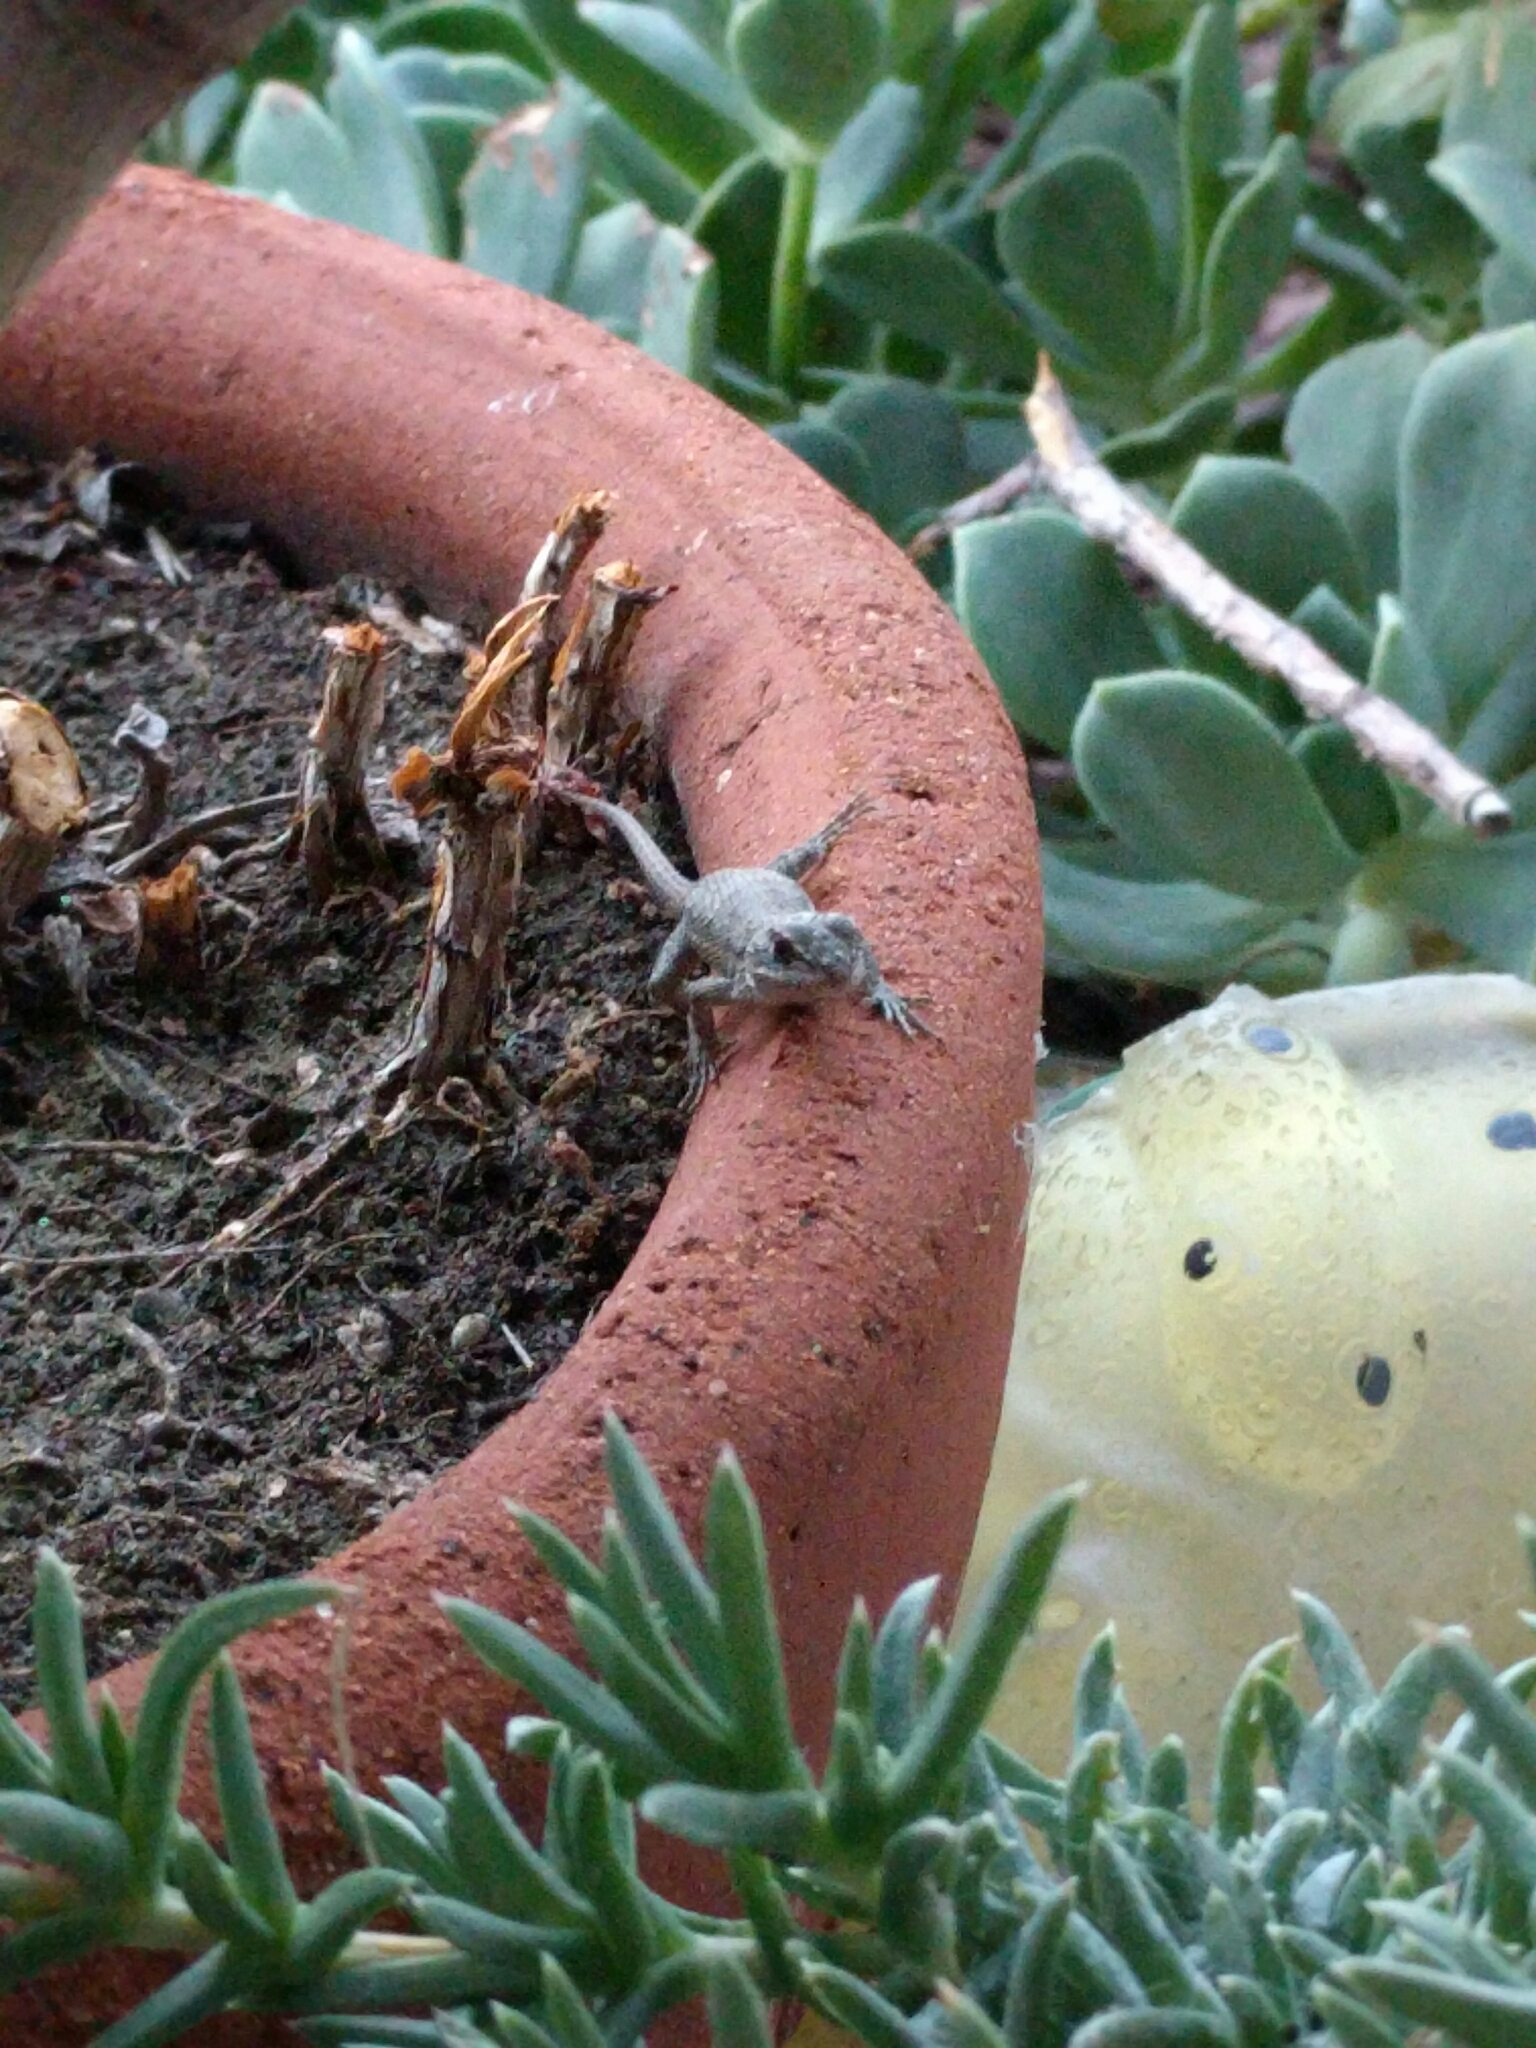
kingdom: Animalia
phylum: Chordata
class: Squamata
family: Phrynosomatidae
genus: Sceloporus
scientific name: Sceloporus occidentalis
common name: Western fence lizard
